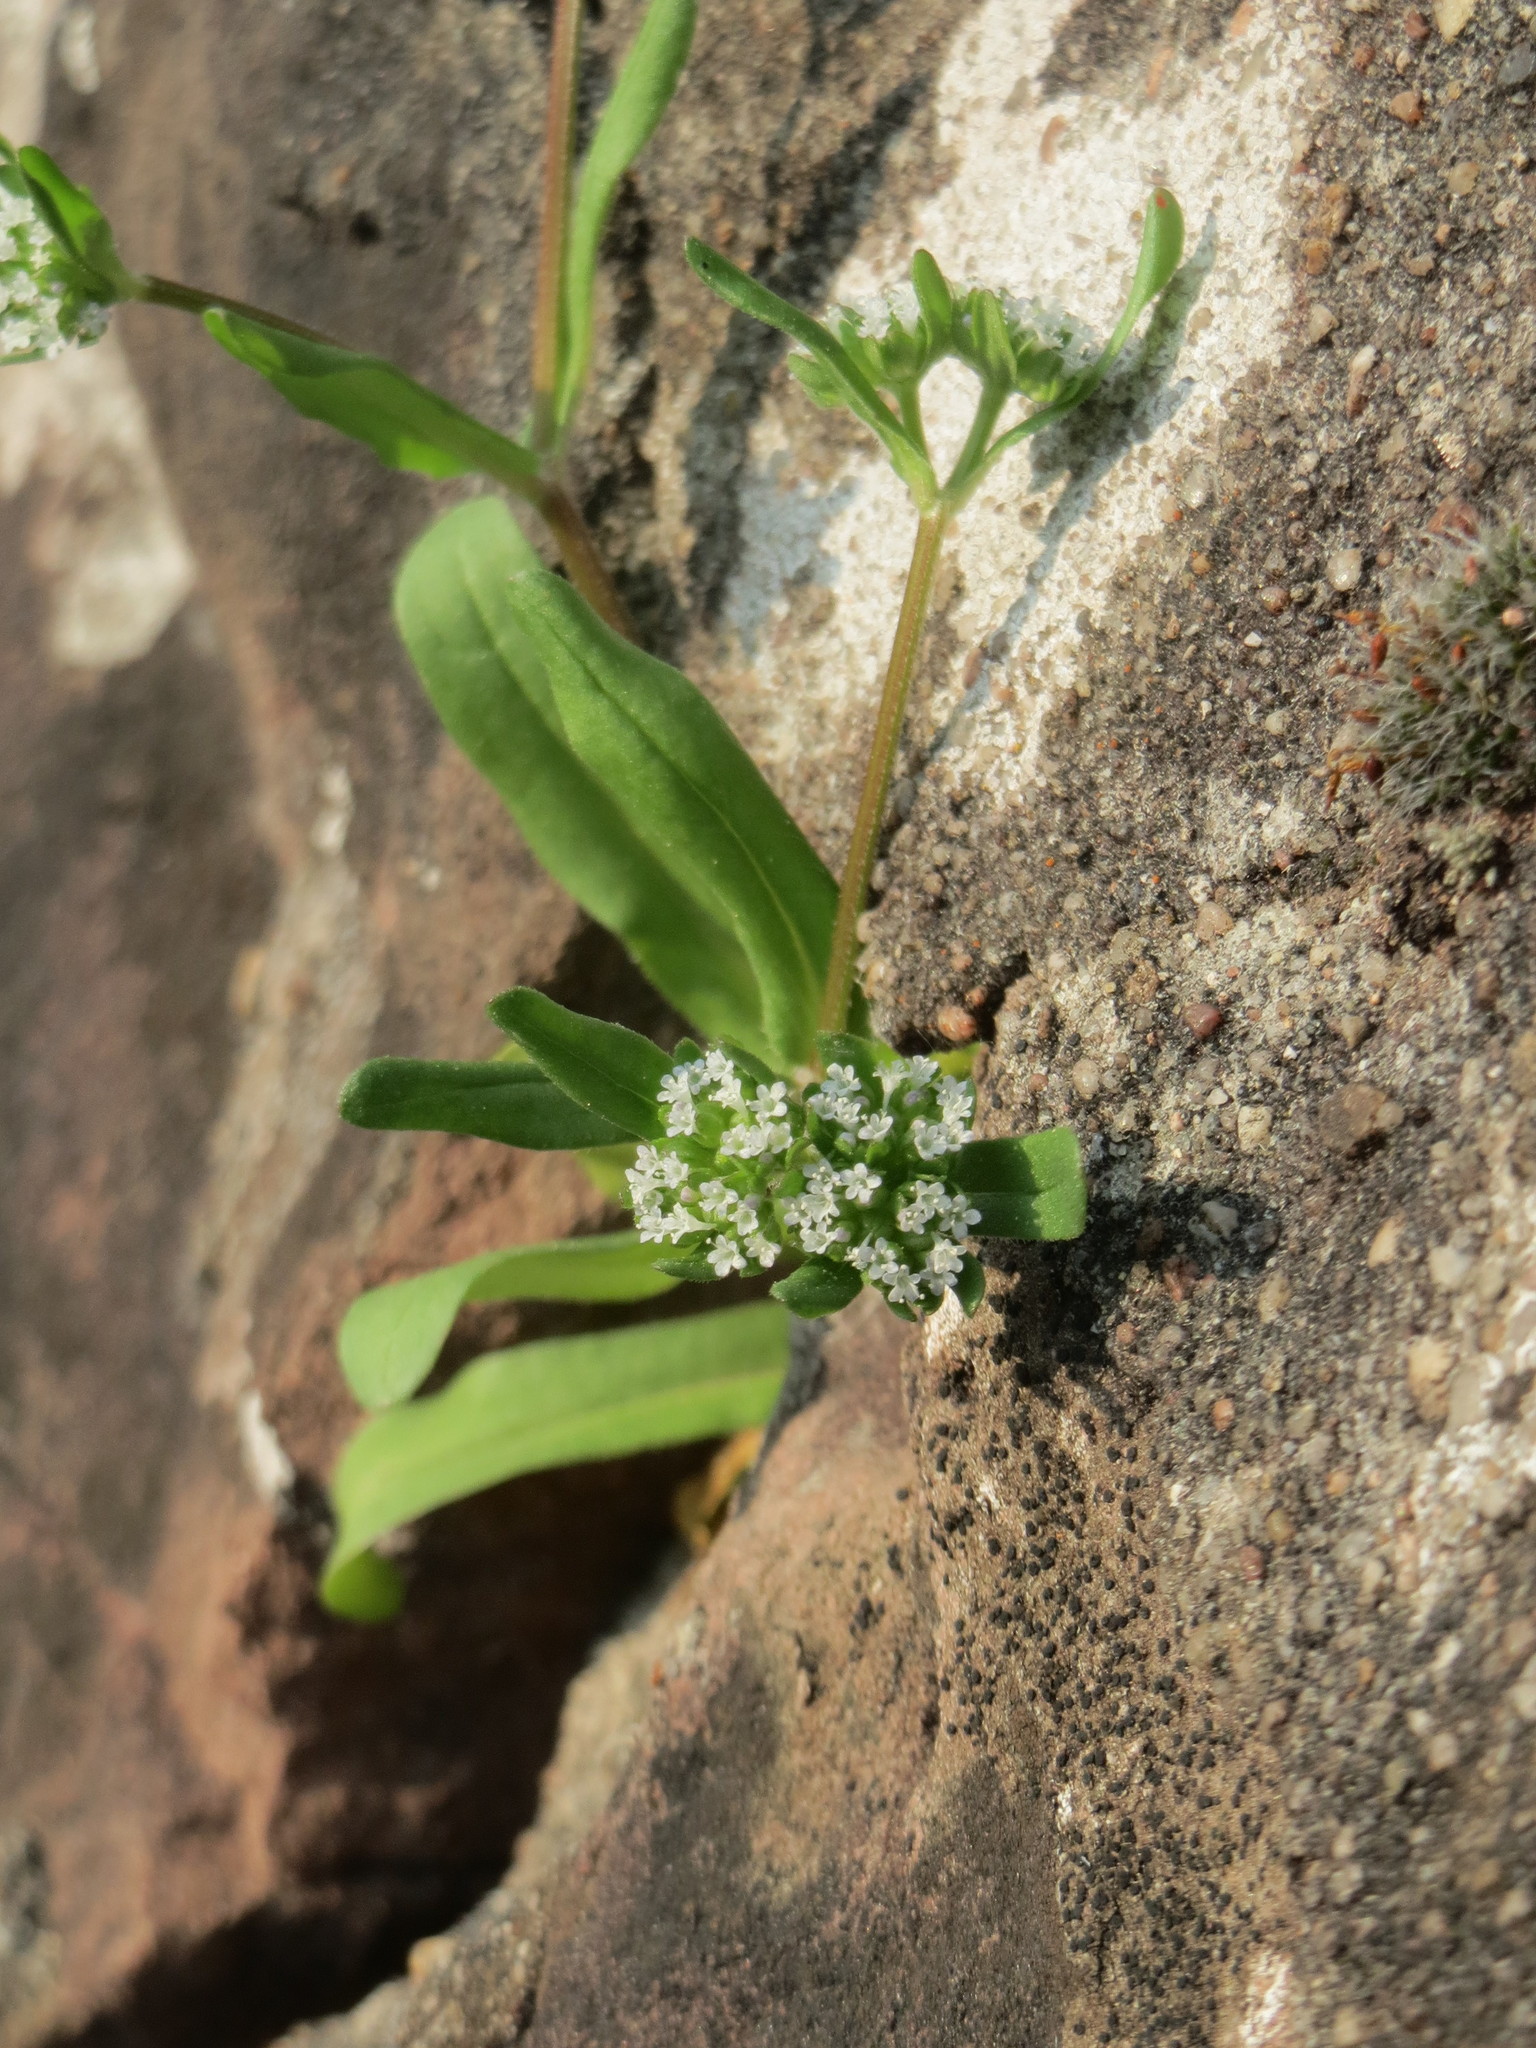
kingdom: Plantae
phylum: Tracheophyta
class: Magnoliopsida
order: Dipsacales
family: Caprifoliaceae
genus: Valerianella
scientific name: Valerianella locusta
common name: Common cornsalad
